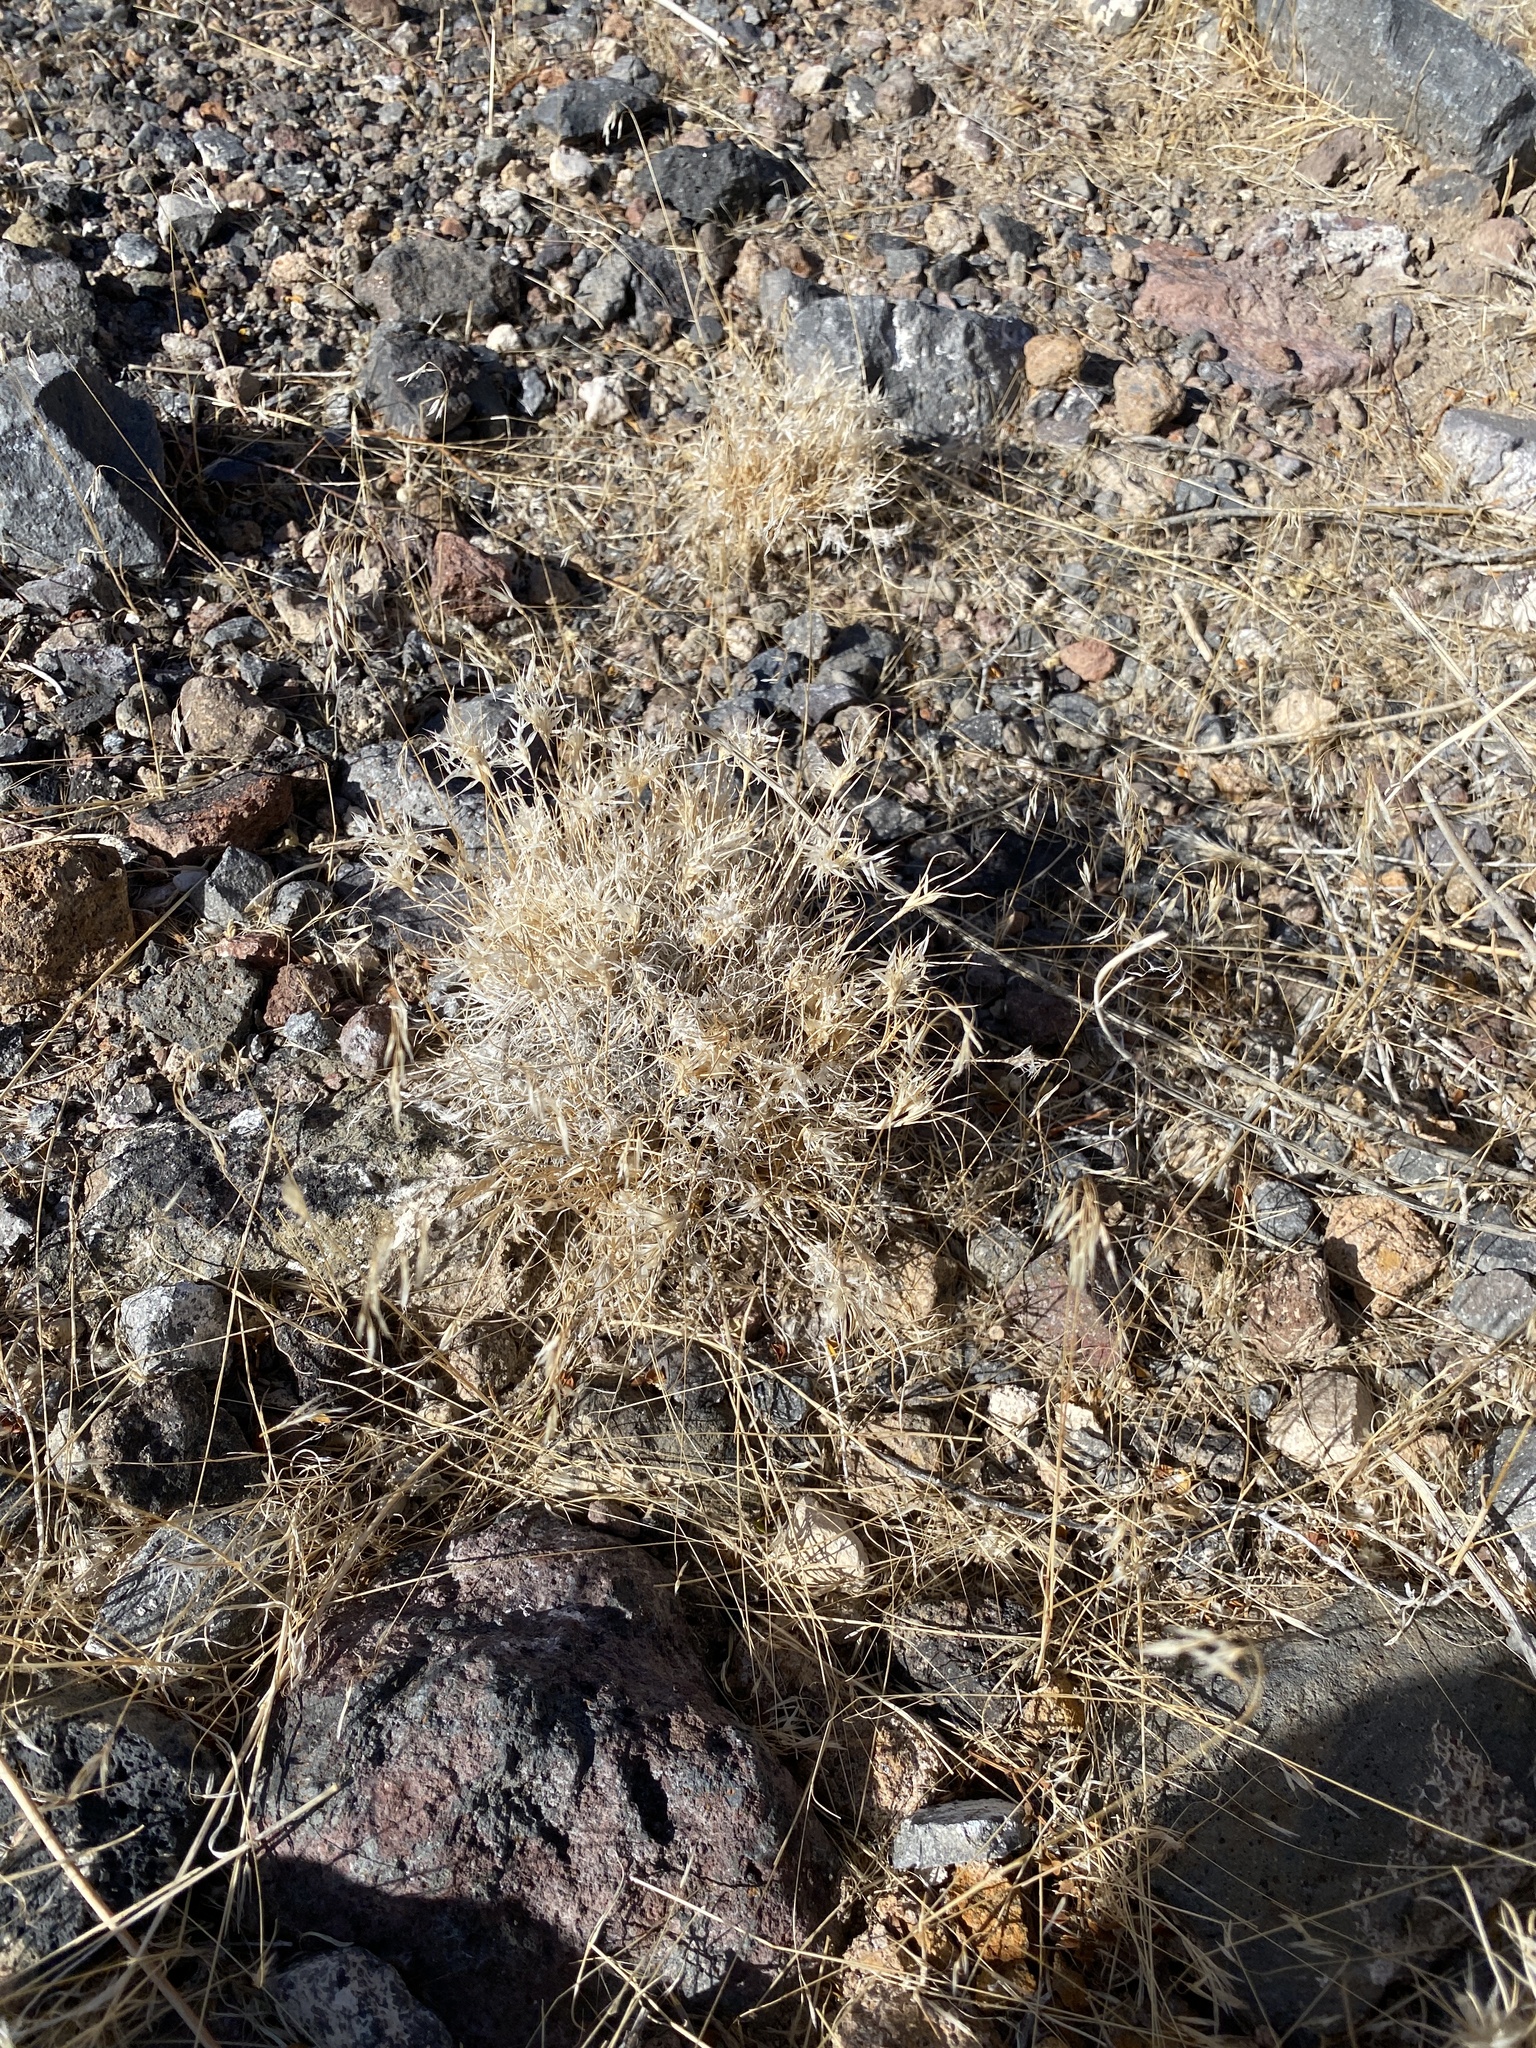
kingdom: Plantae
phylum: Tracheophyta
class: Liliopsida
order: Poales
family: Poaceae
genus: Dasyochloa
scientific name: Dasyochloa pulchella
